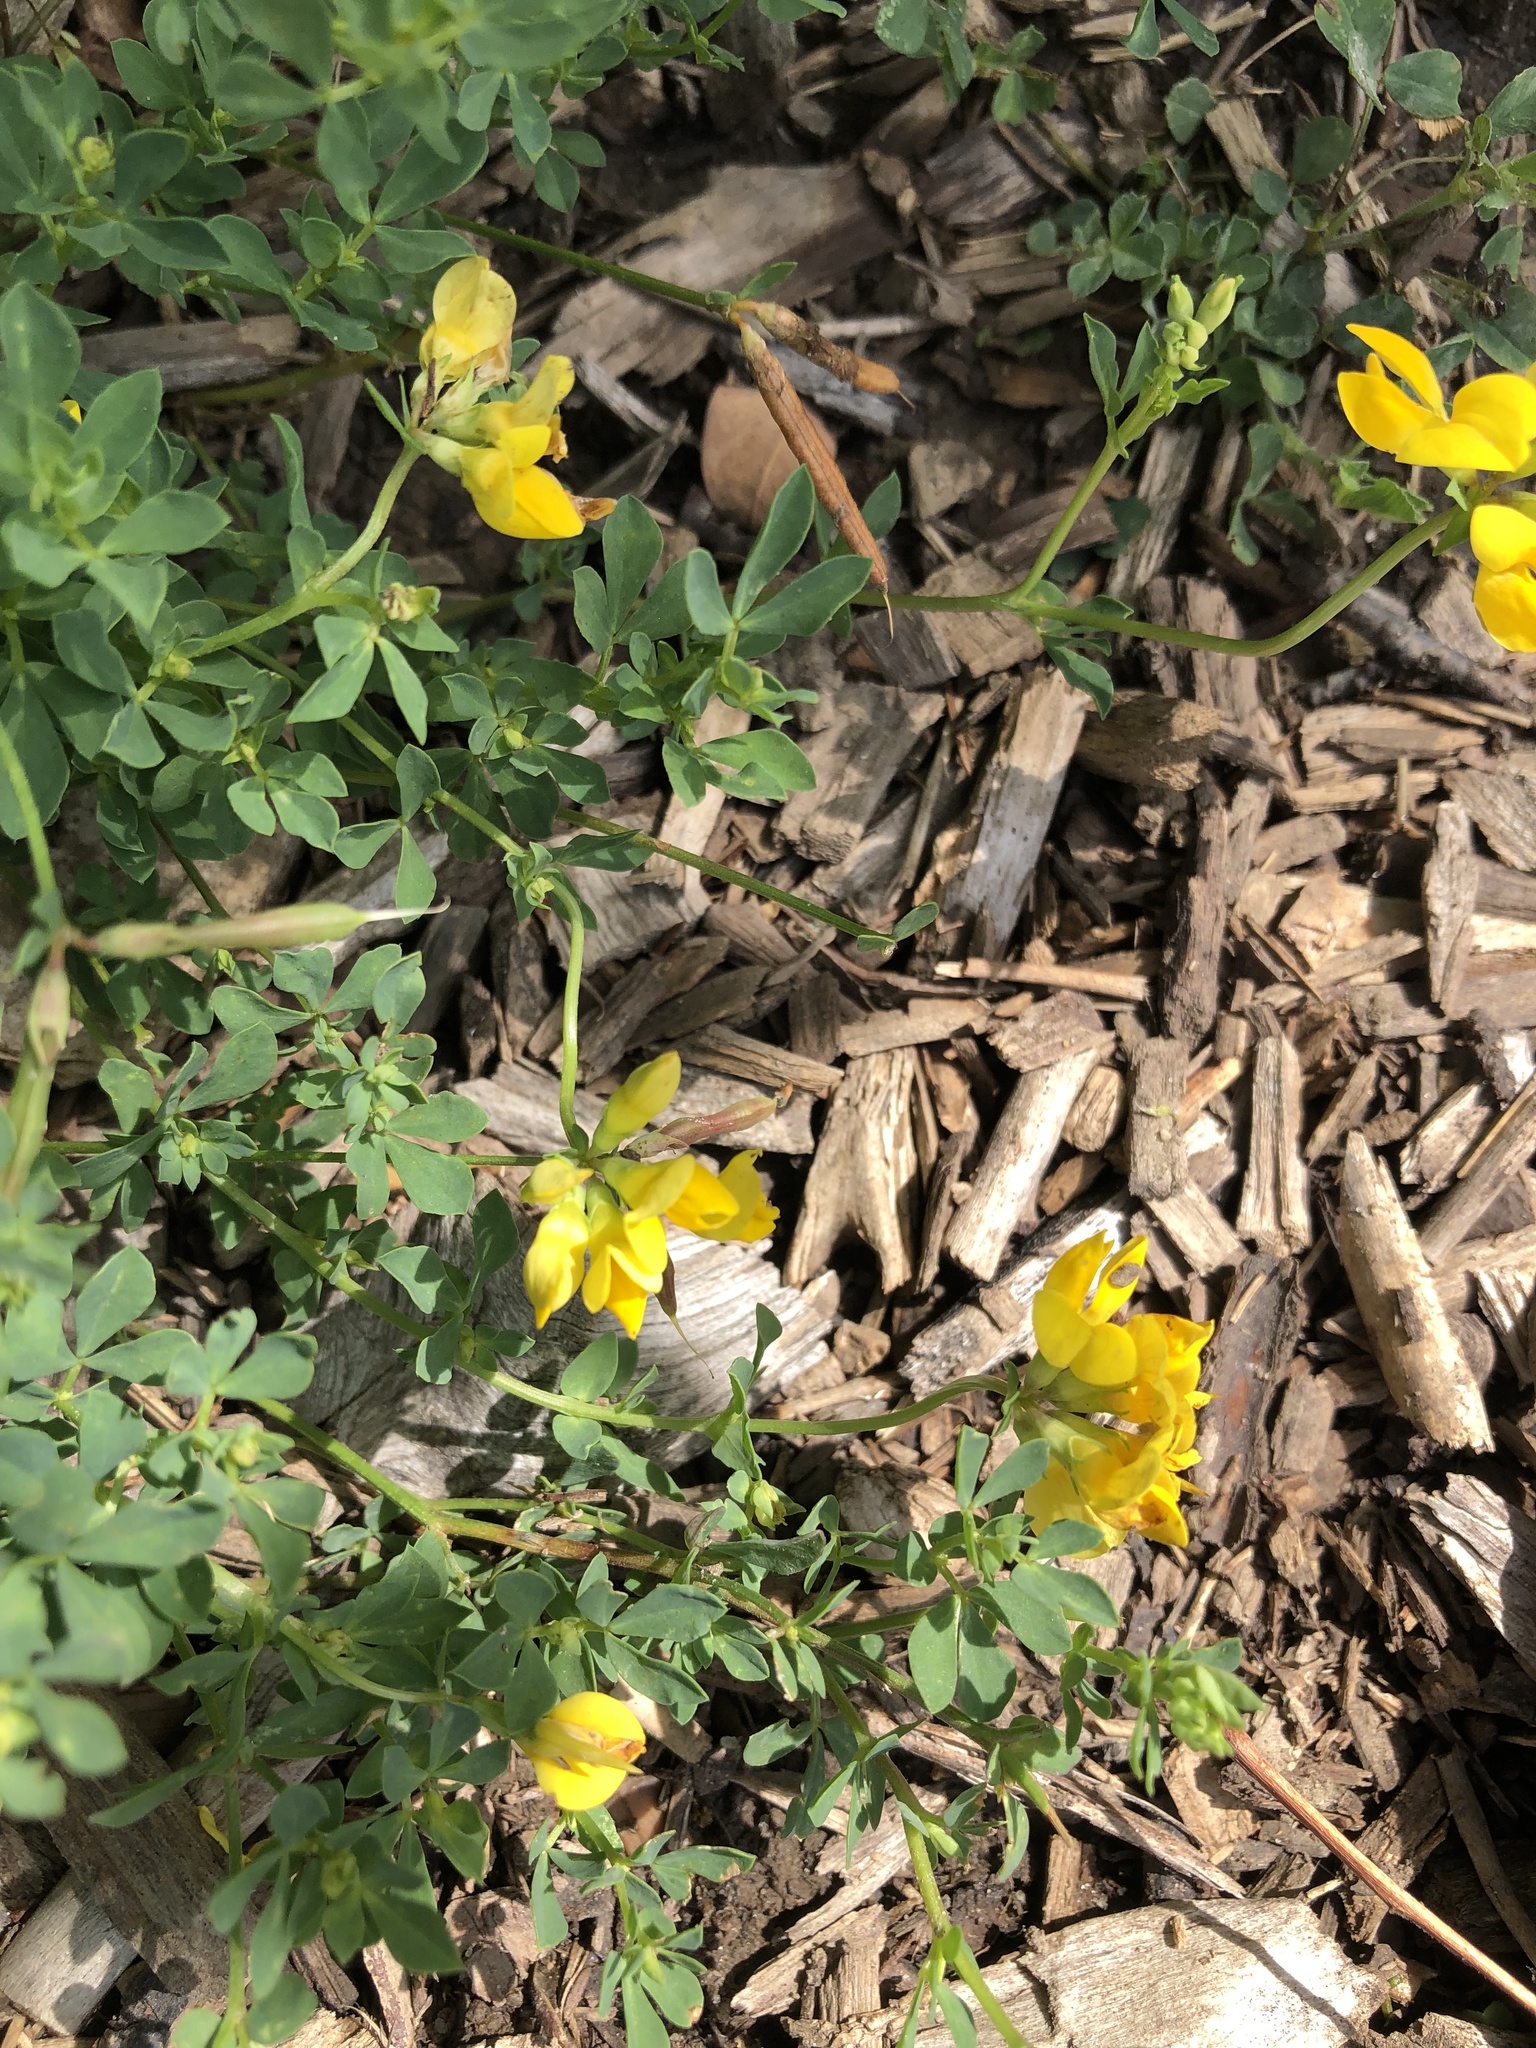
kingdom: Plantae
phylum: Tracheophyta
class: Magnoliopsida
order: Fabales
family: Fabaceae
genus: Lotus
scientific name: Lotus corniculatus
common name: Common bird's-foot-trefoil
